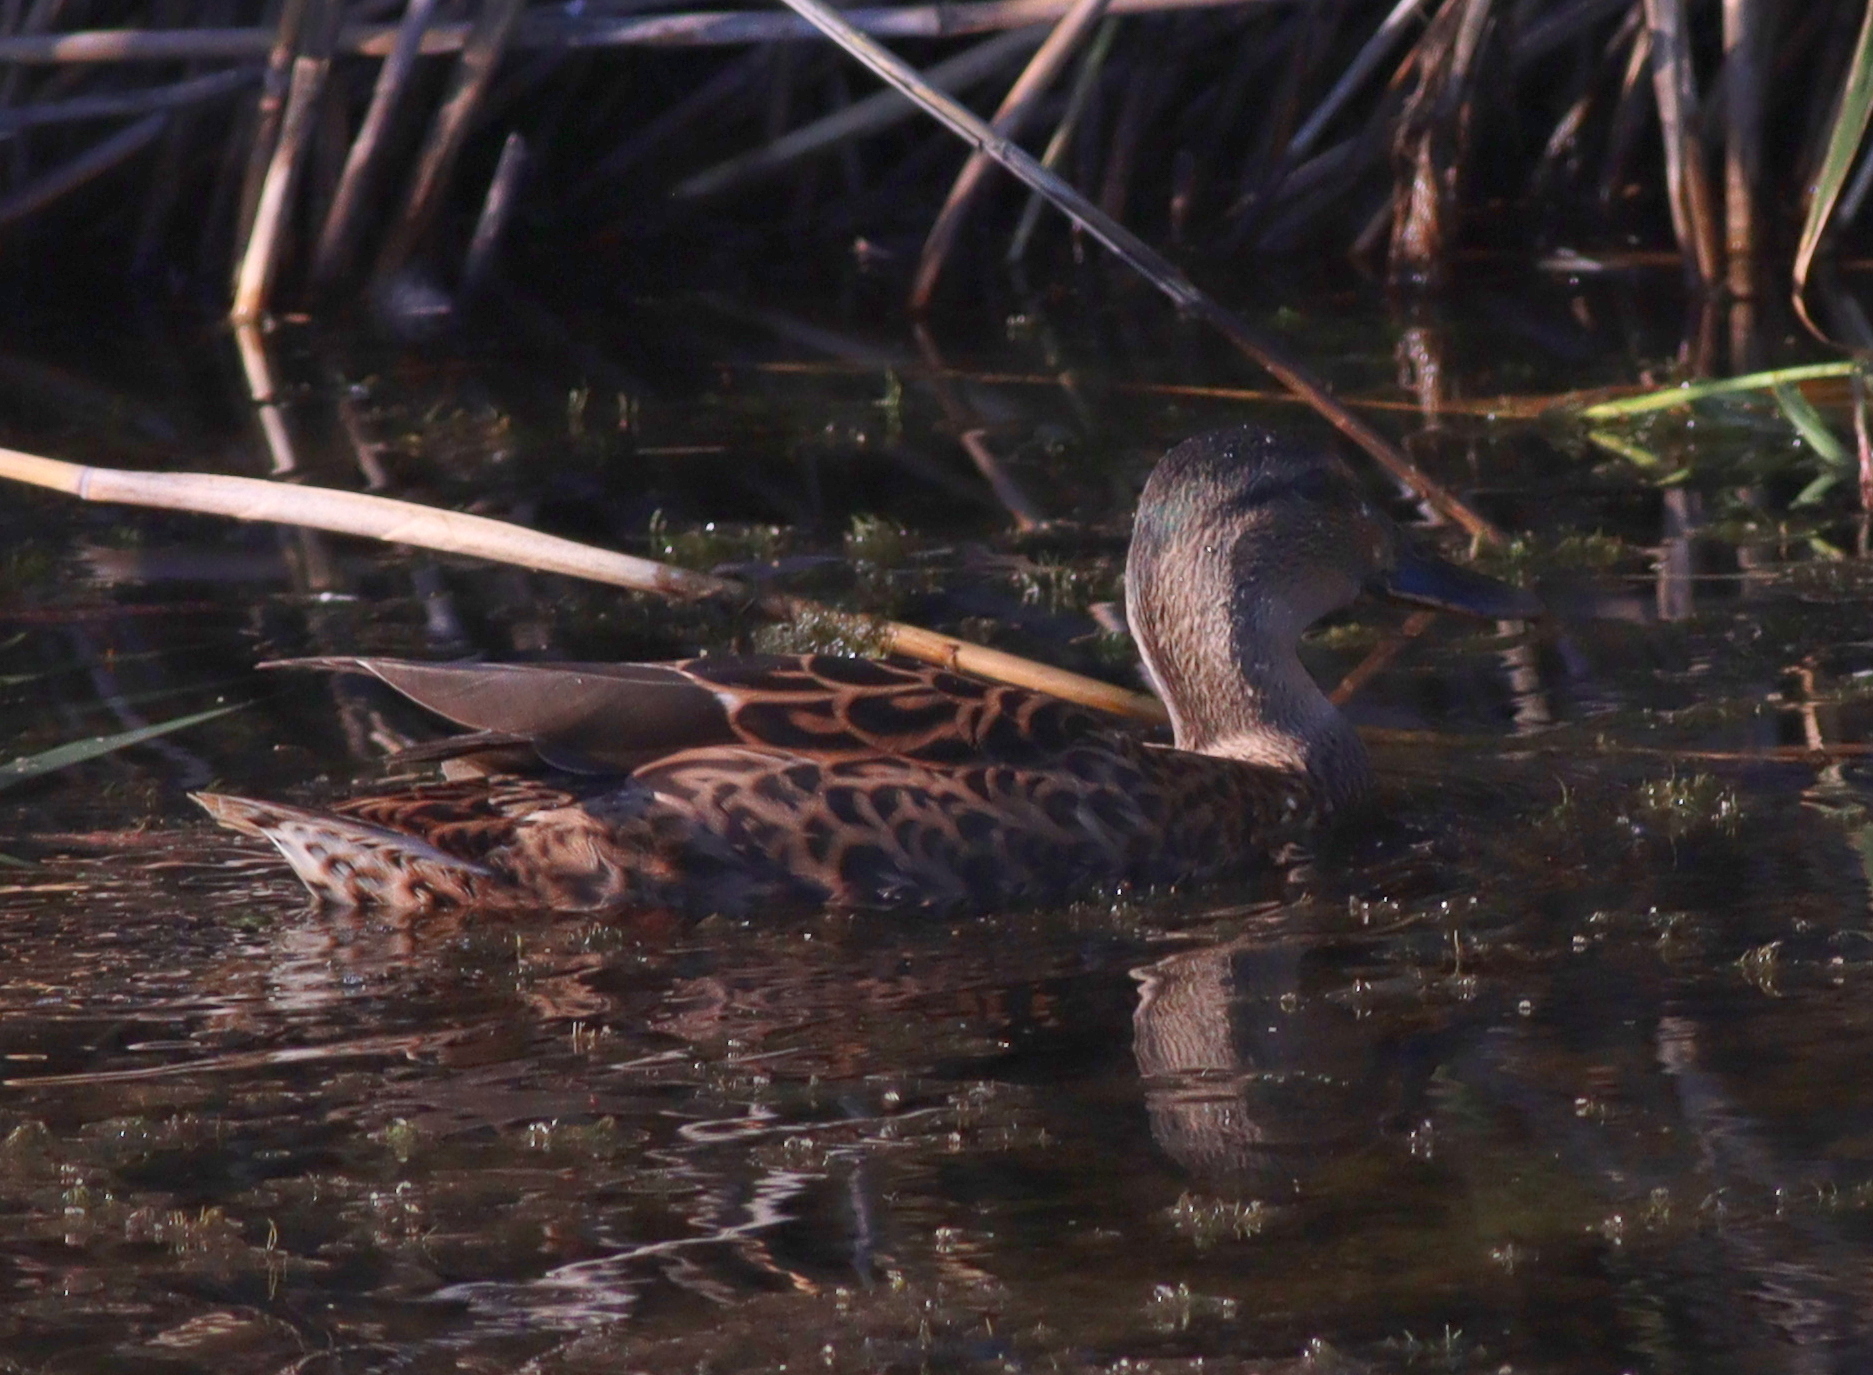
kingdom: Animalia
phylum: Chordata
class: Aves
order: Anseriformes
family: Anatidae
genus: Anas
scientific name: Anas platyrhynchos
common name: Mallard
